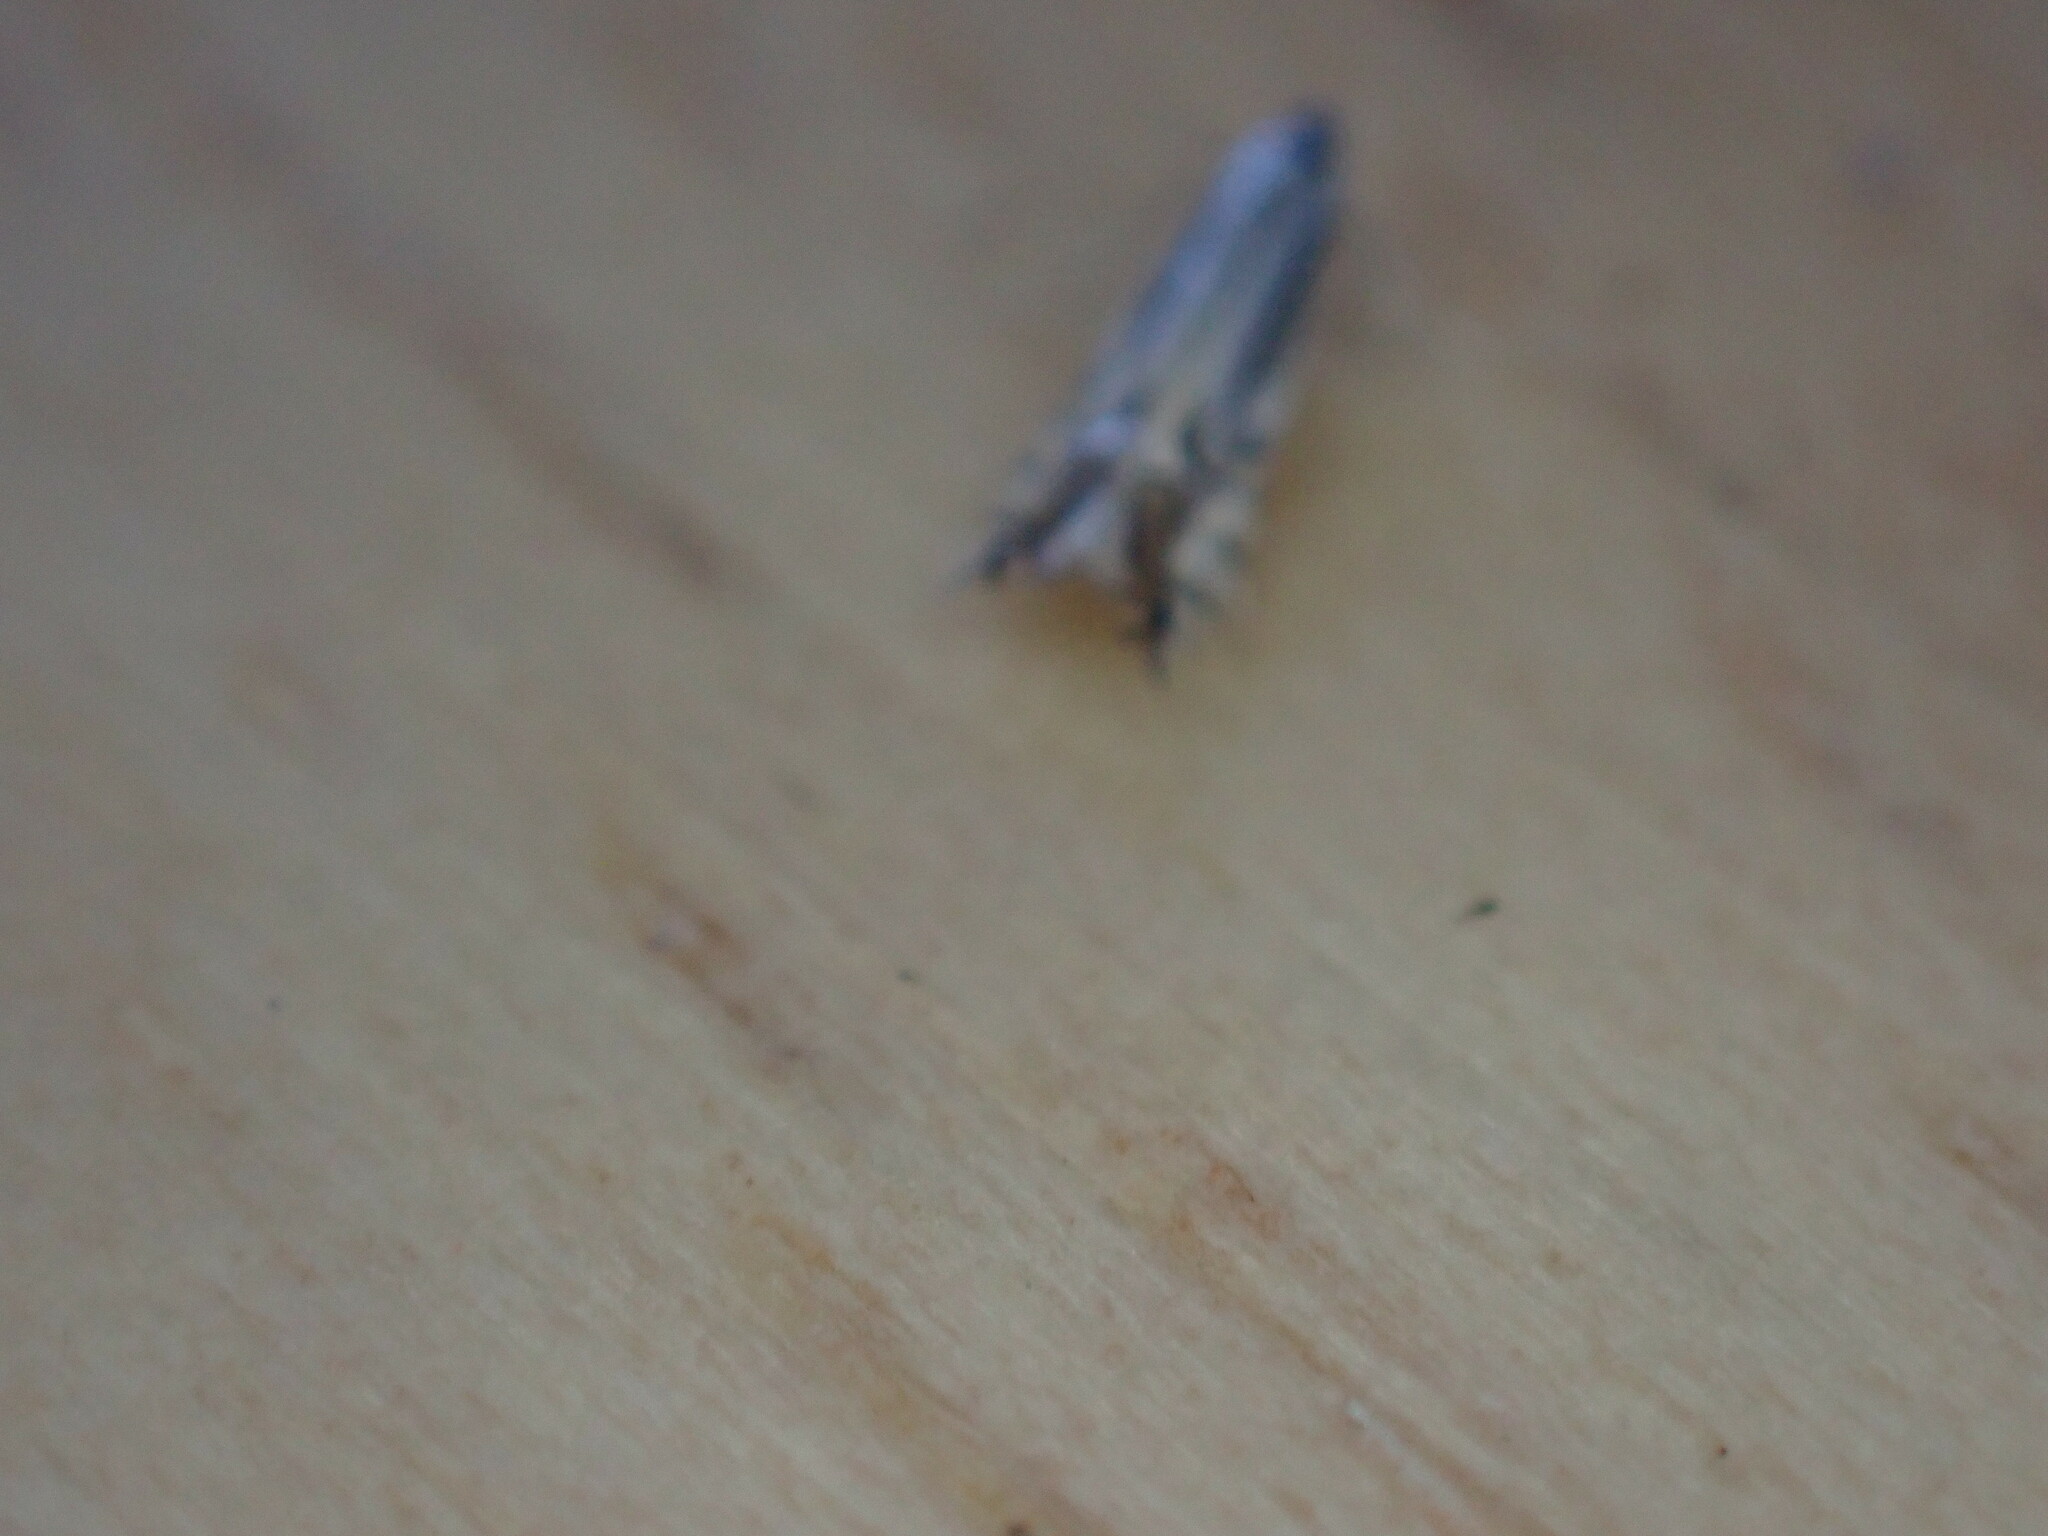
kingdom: Animalia
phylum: Arthropoda
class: Insecta
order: Lepidoptera
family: Lyonetiidae
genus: Lyonetia
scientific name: Lyonetia clerkella
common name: Apple leaf miner
